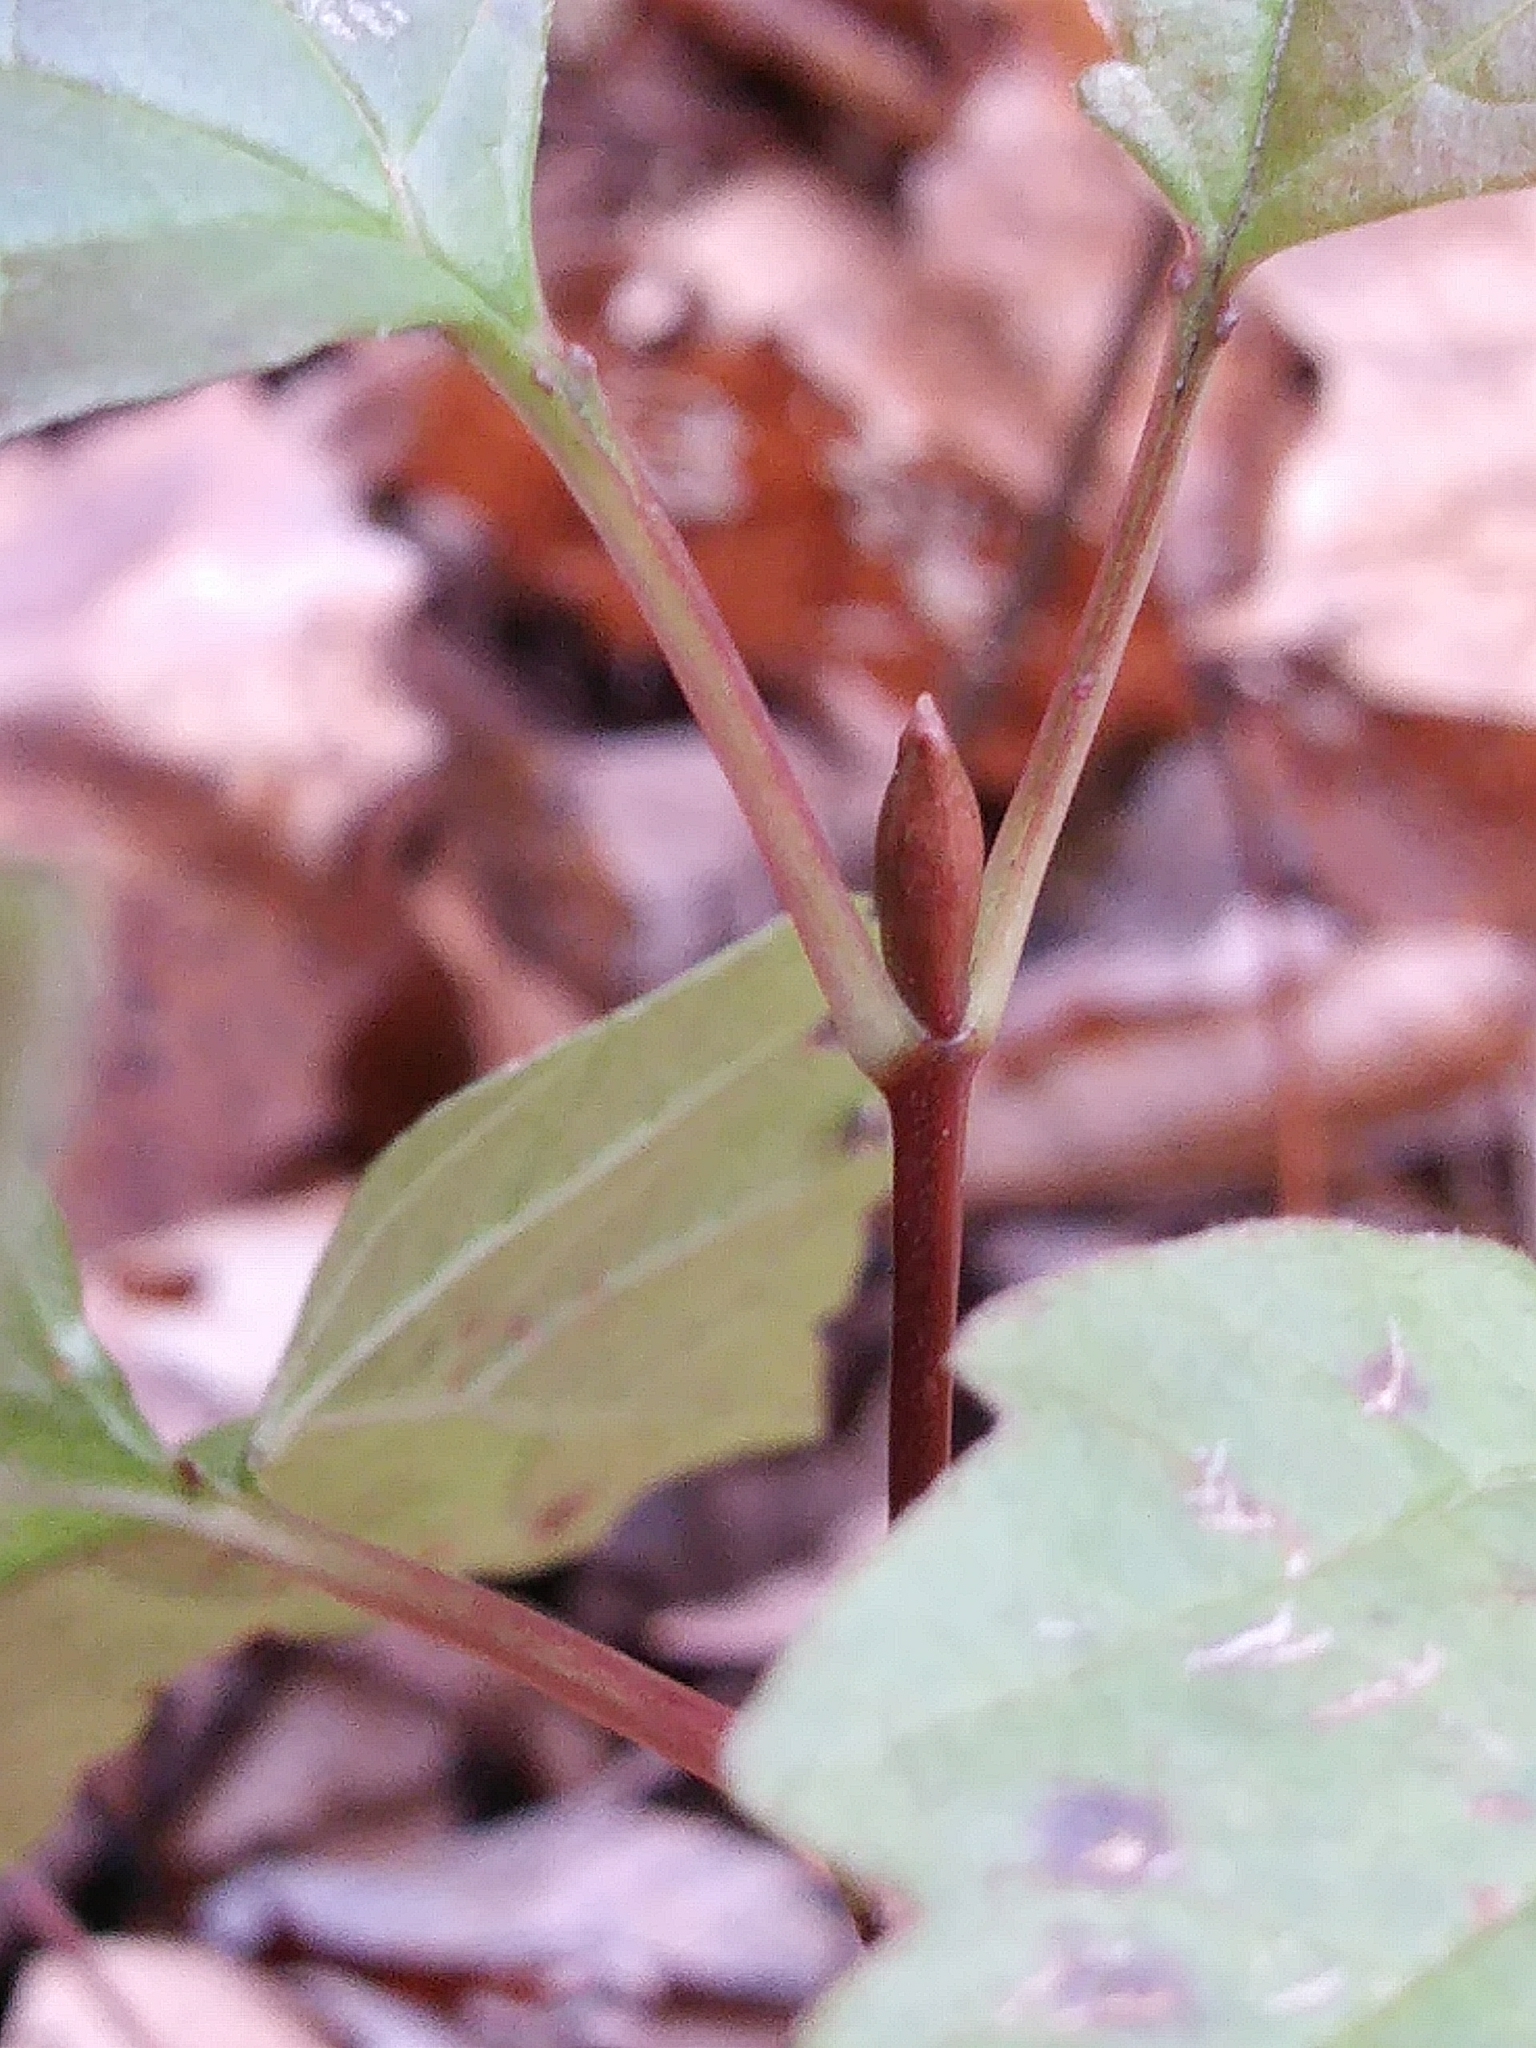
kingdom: Plantae
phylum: Tracheophyta
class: Magnoliopsida
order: Dipsacales
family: Viburnaceae
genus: Viburnum
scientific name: Viburnum acerifolium
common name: Dockmackie
